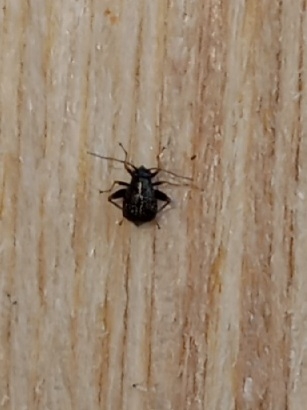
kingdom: Animalia
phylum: Arthropoda
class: Insecta
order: Hemiptera
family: Miridae
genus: Microtechnites
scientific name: Microtechnites bractatus
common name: Garden fleahopper
